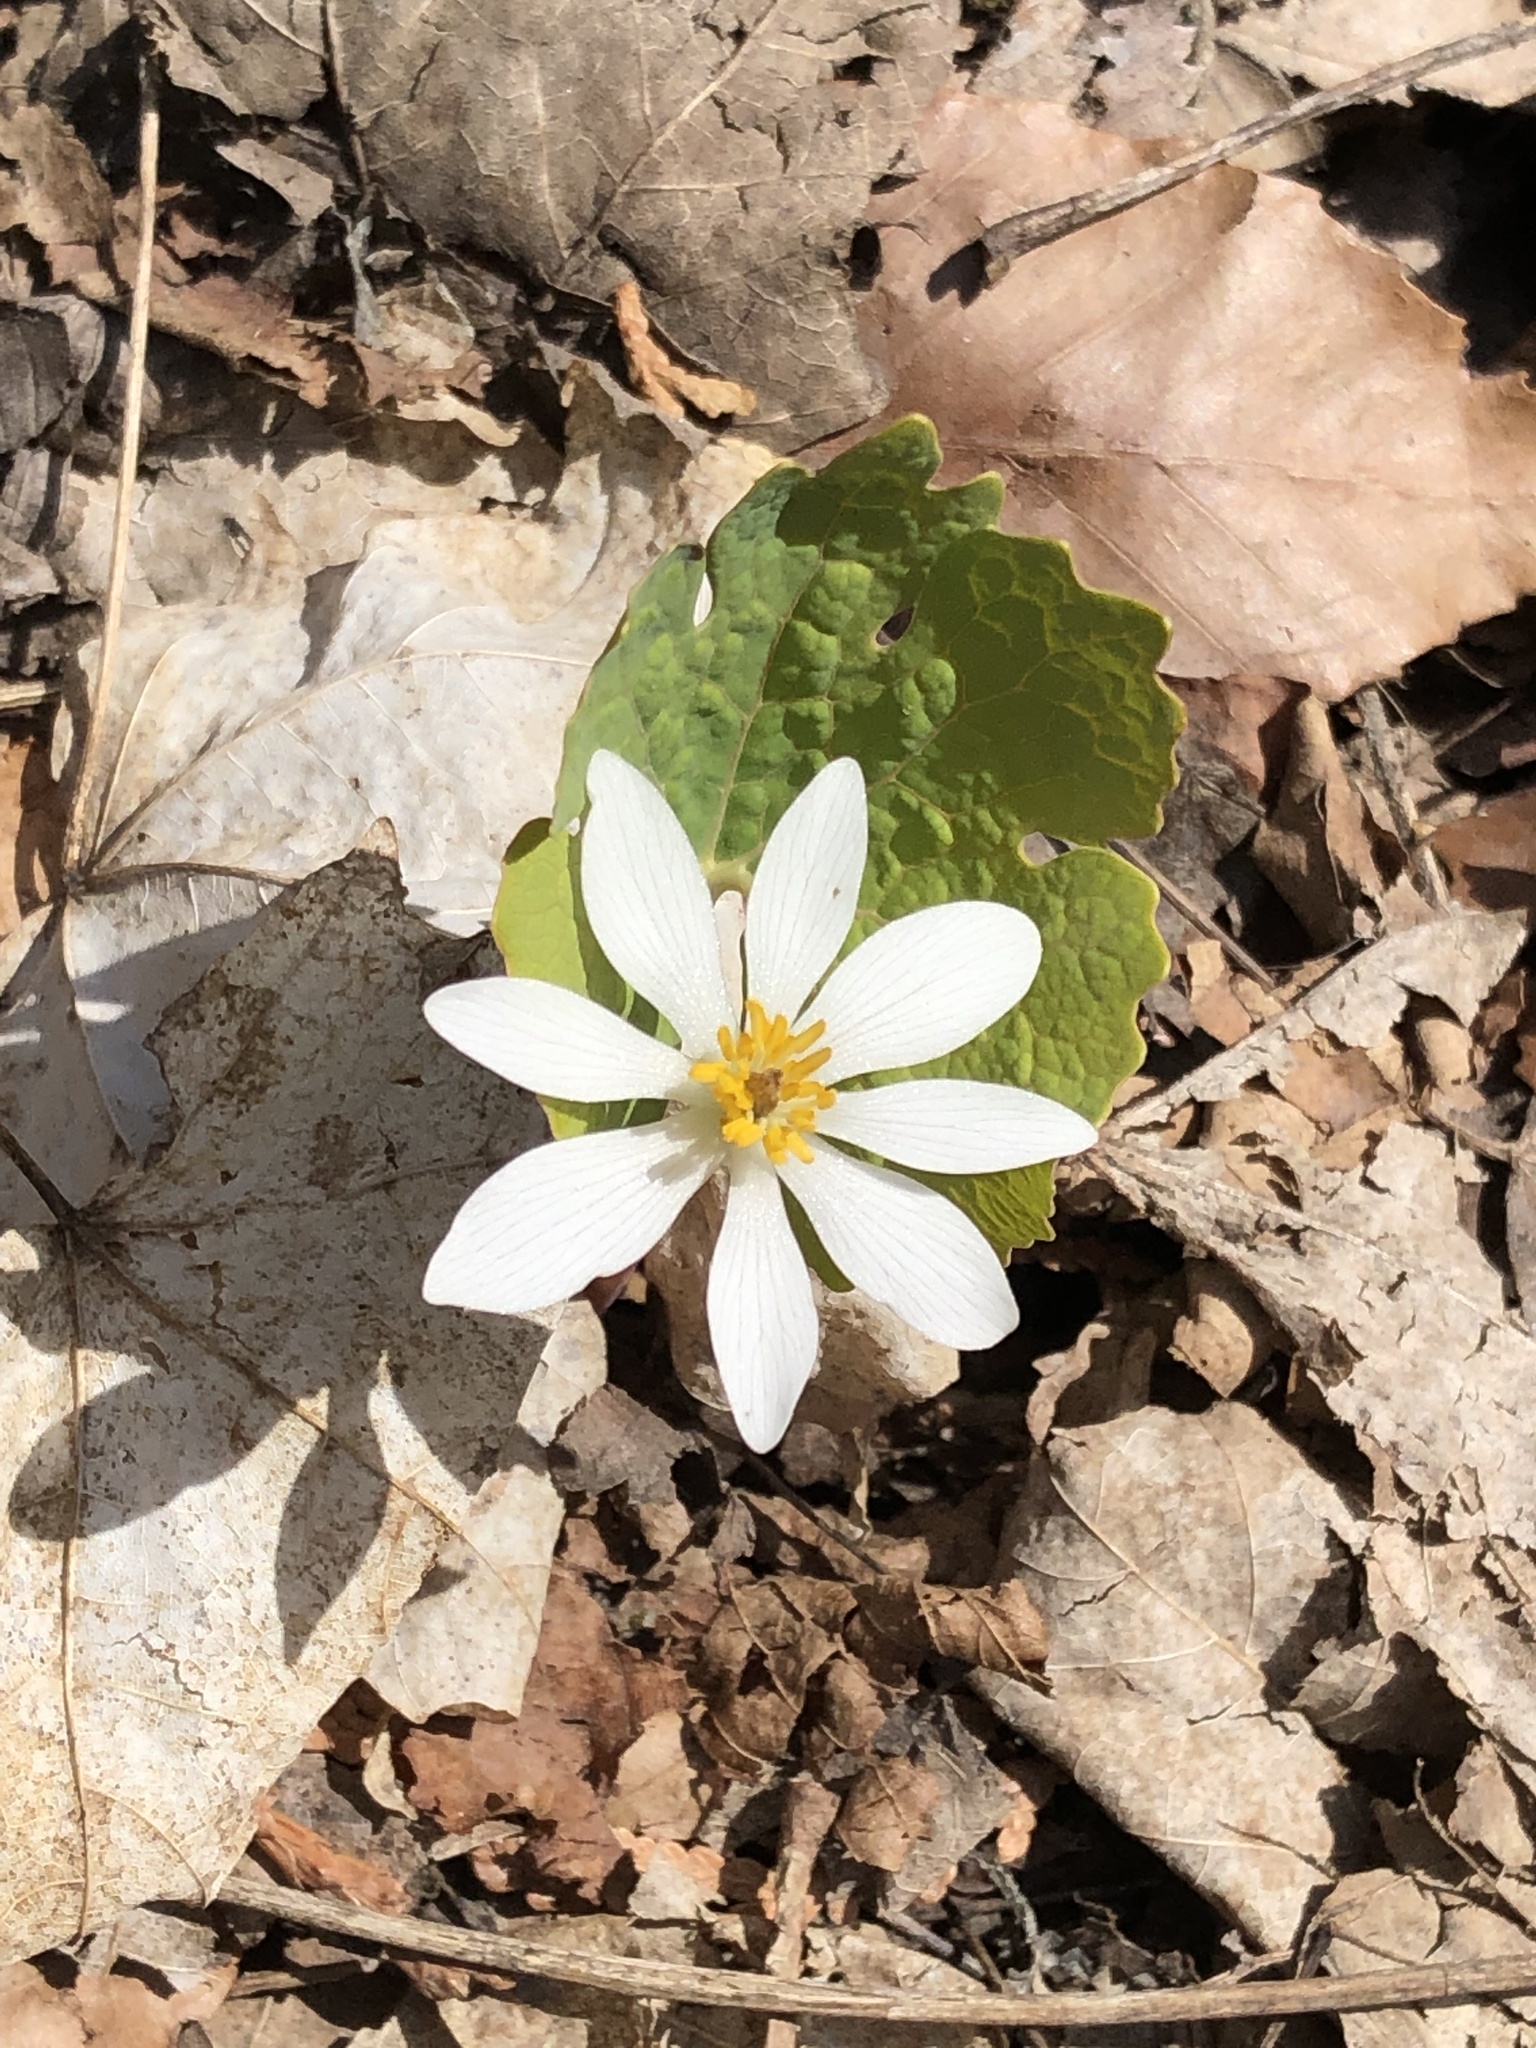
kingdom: Plantae
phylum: Tracheophyta
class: Magnoliopsida
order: Ranunculales
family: Papaveraceae
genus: Sanguinaria
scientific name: Sanguinaria canadensis
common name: Bloodroot
